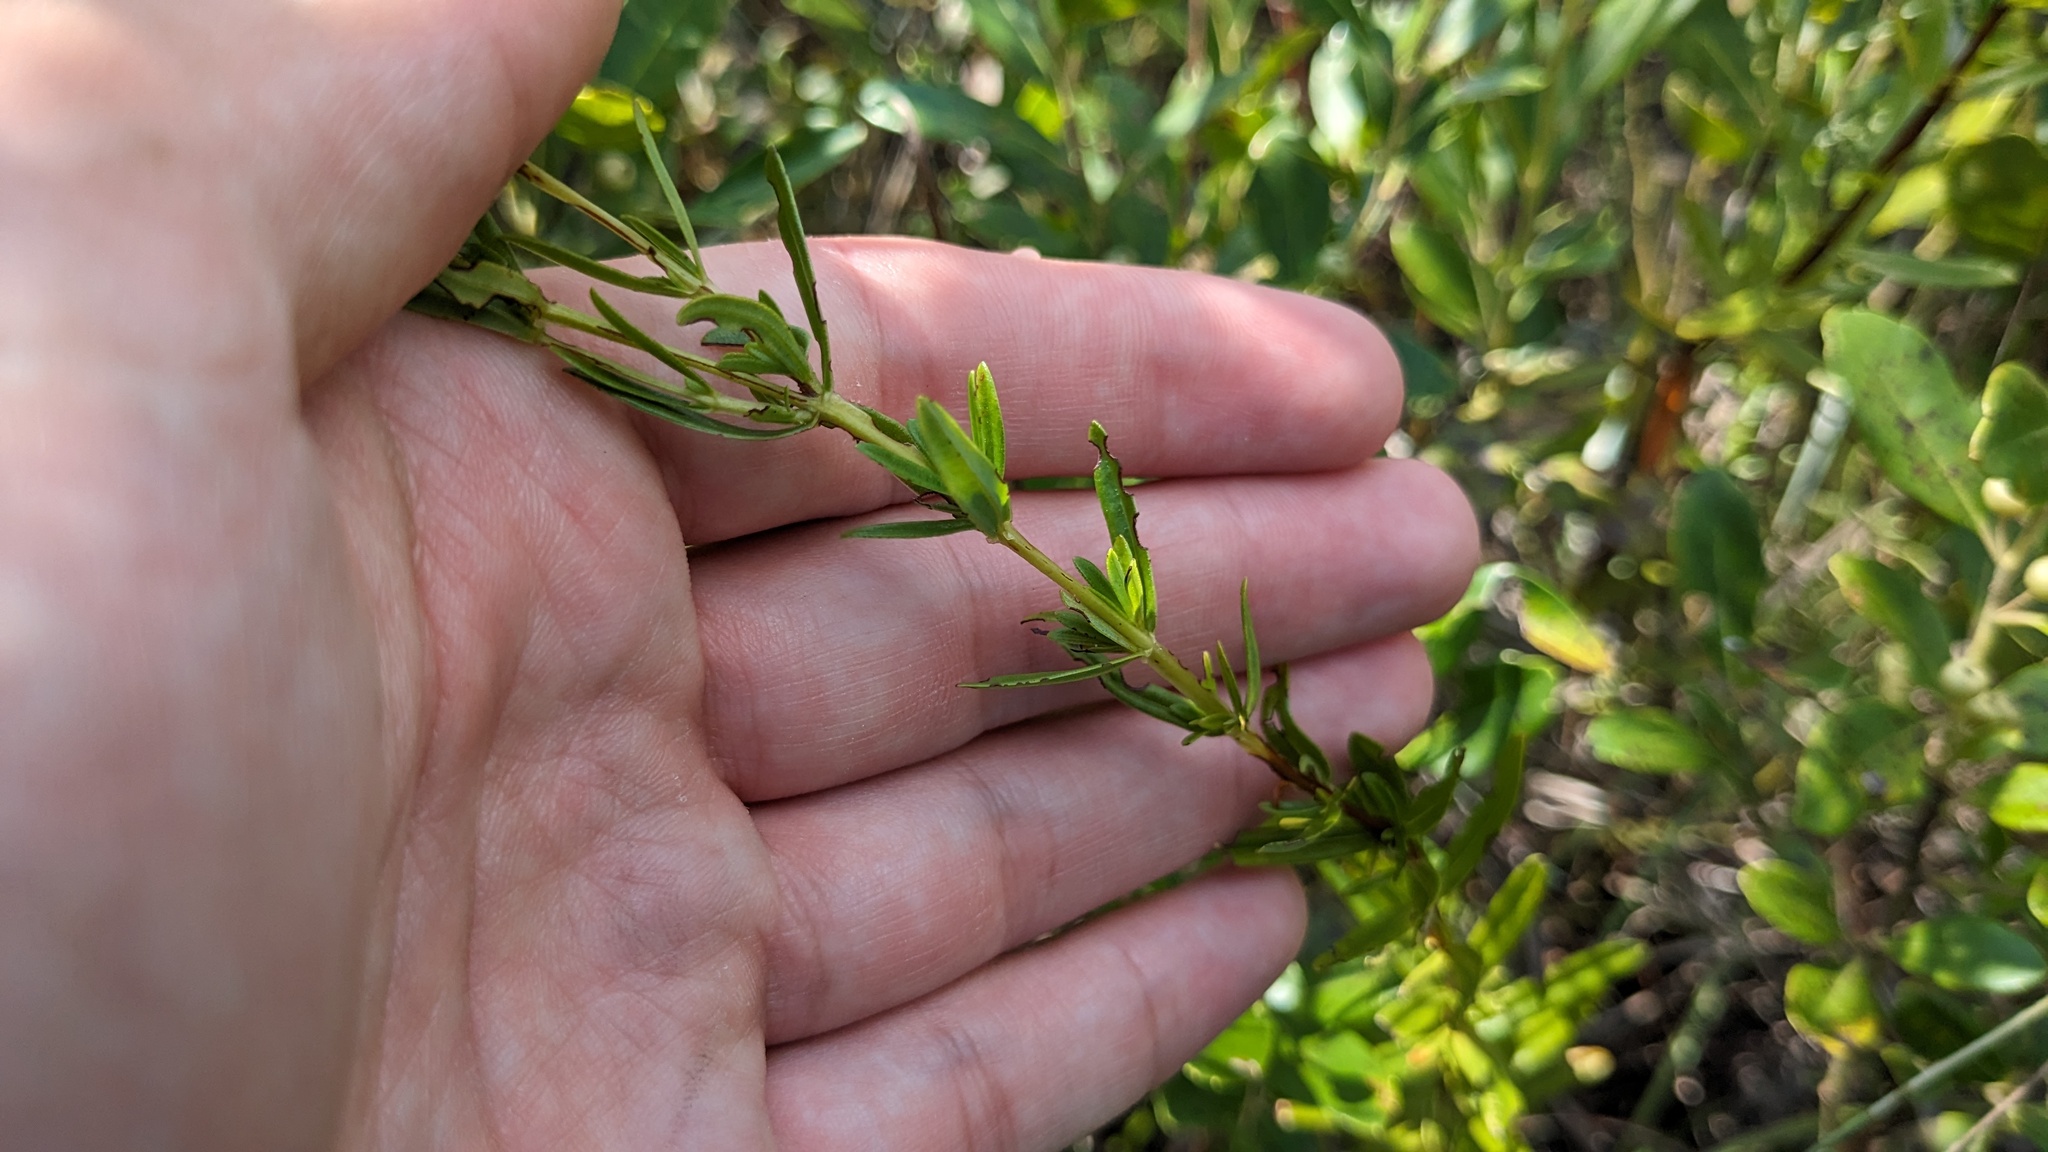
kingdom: Plantae
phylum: Tracheophyta
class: Magnoliopsida
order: Malpighiales
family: Hypericaceae
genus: Hypericum
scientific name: Hypericum cistifolium
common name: Round-pod st. john's-wort
